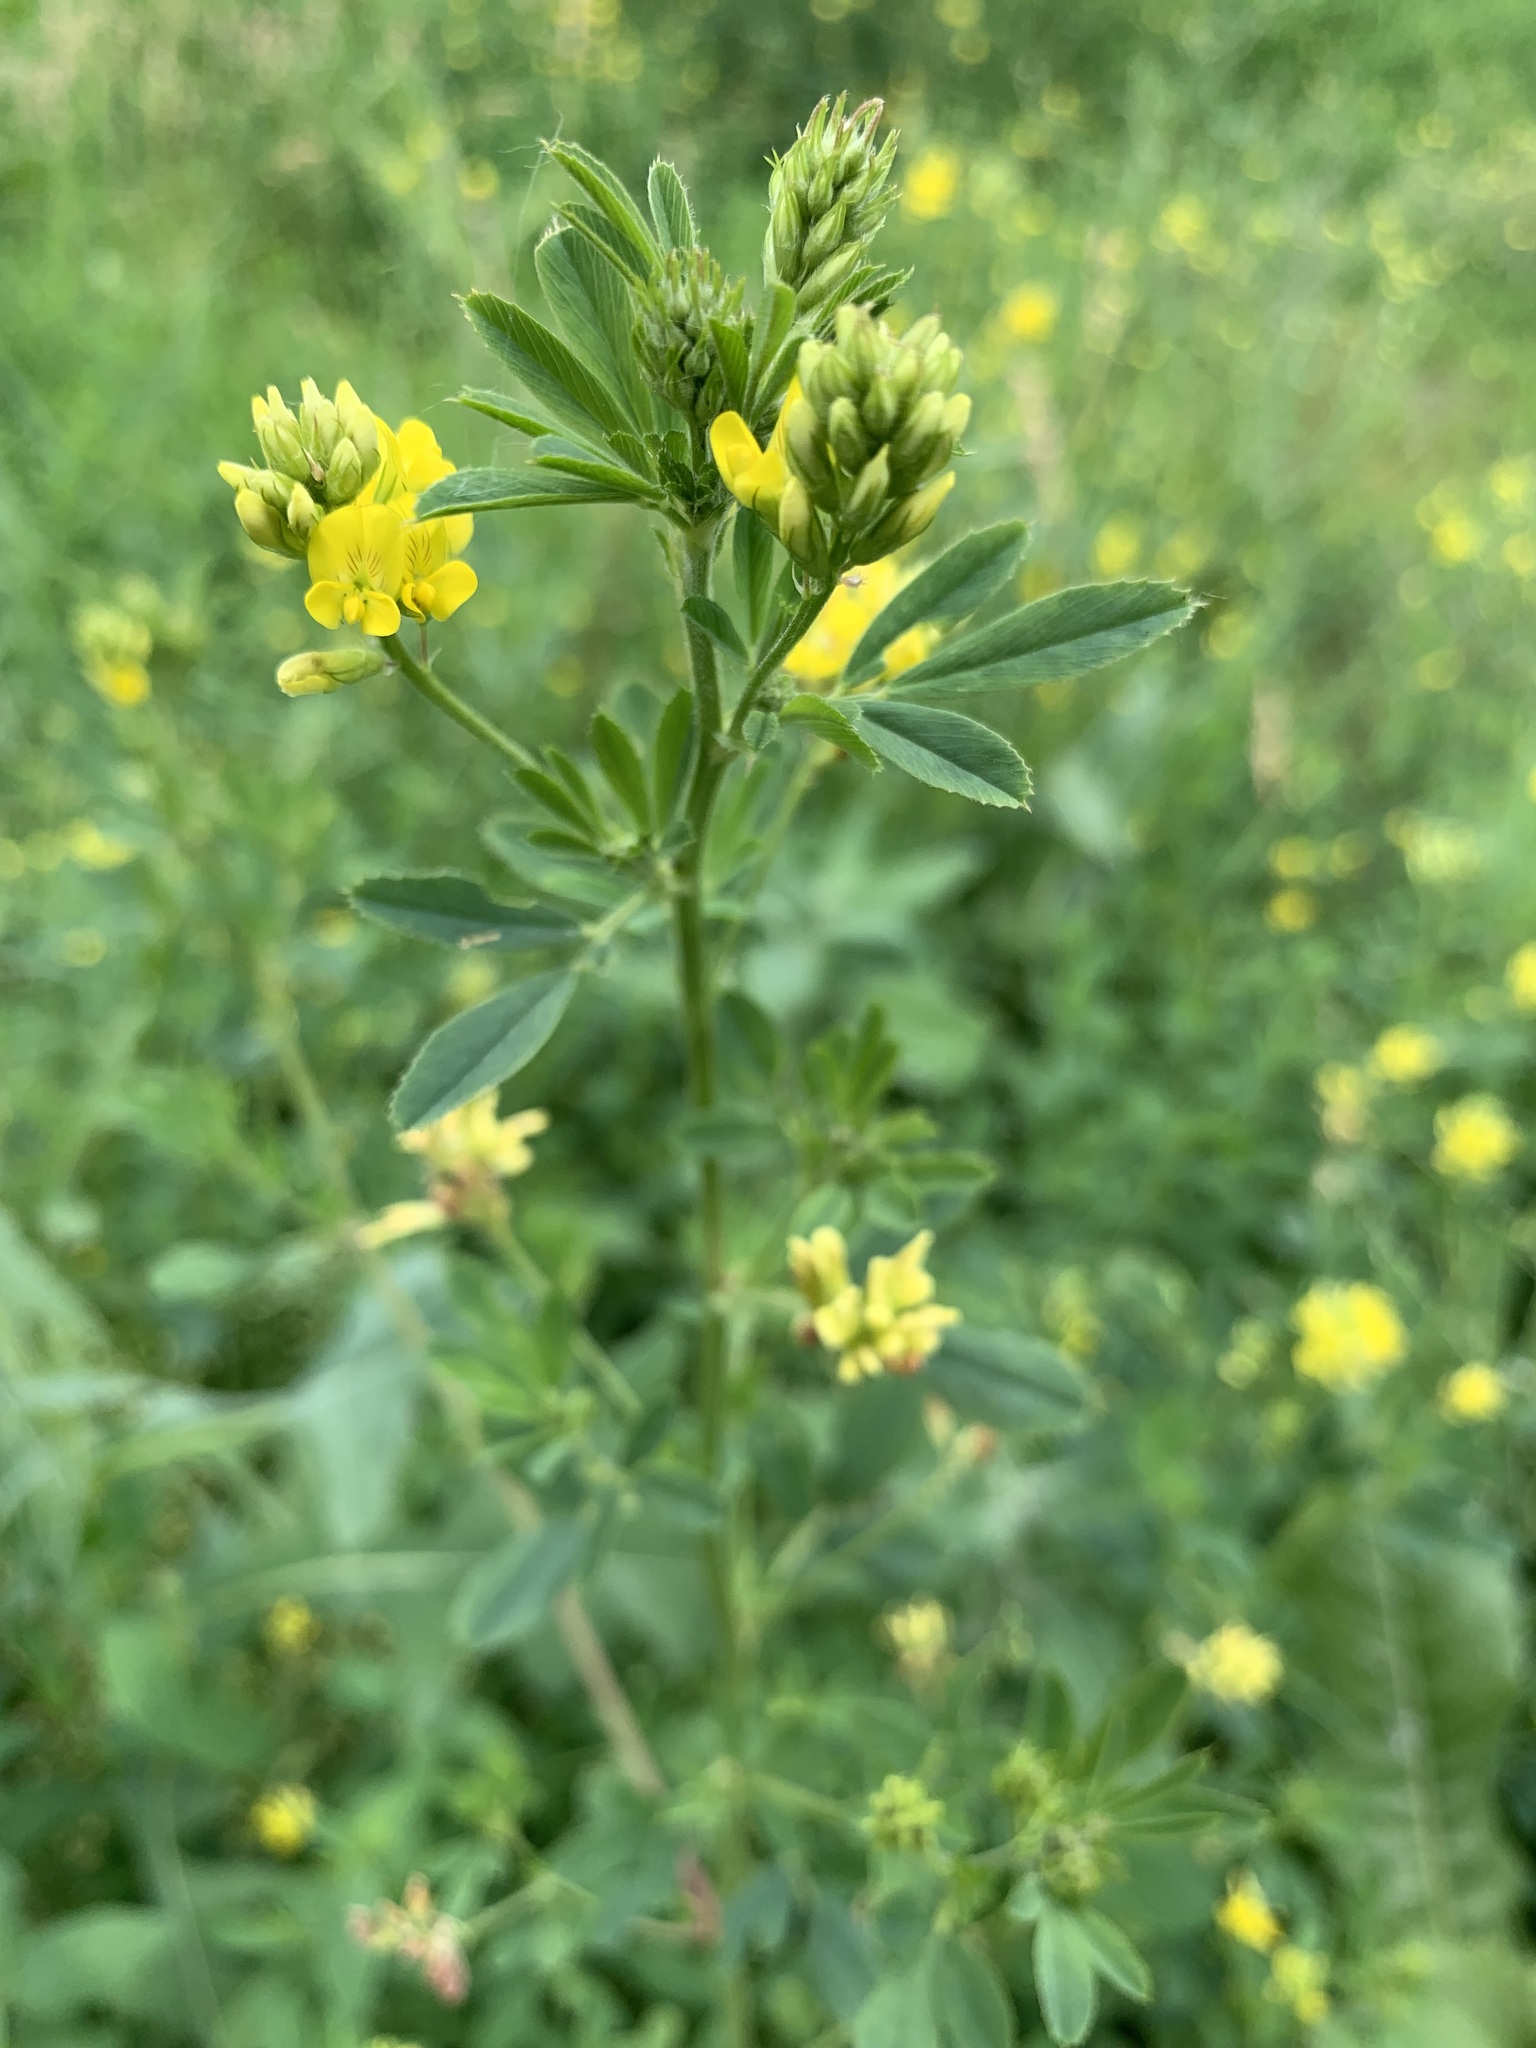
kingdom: Plantae
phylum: Tracheophyta
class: Magnoliopsida
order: Fabales
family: Fabaceae
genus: Medicago
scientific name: Medicago falcata
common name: Sickle medick
